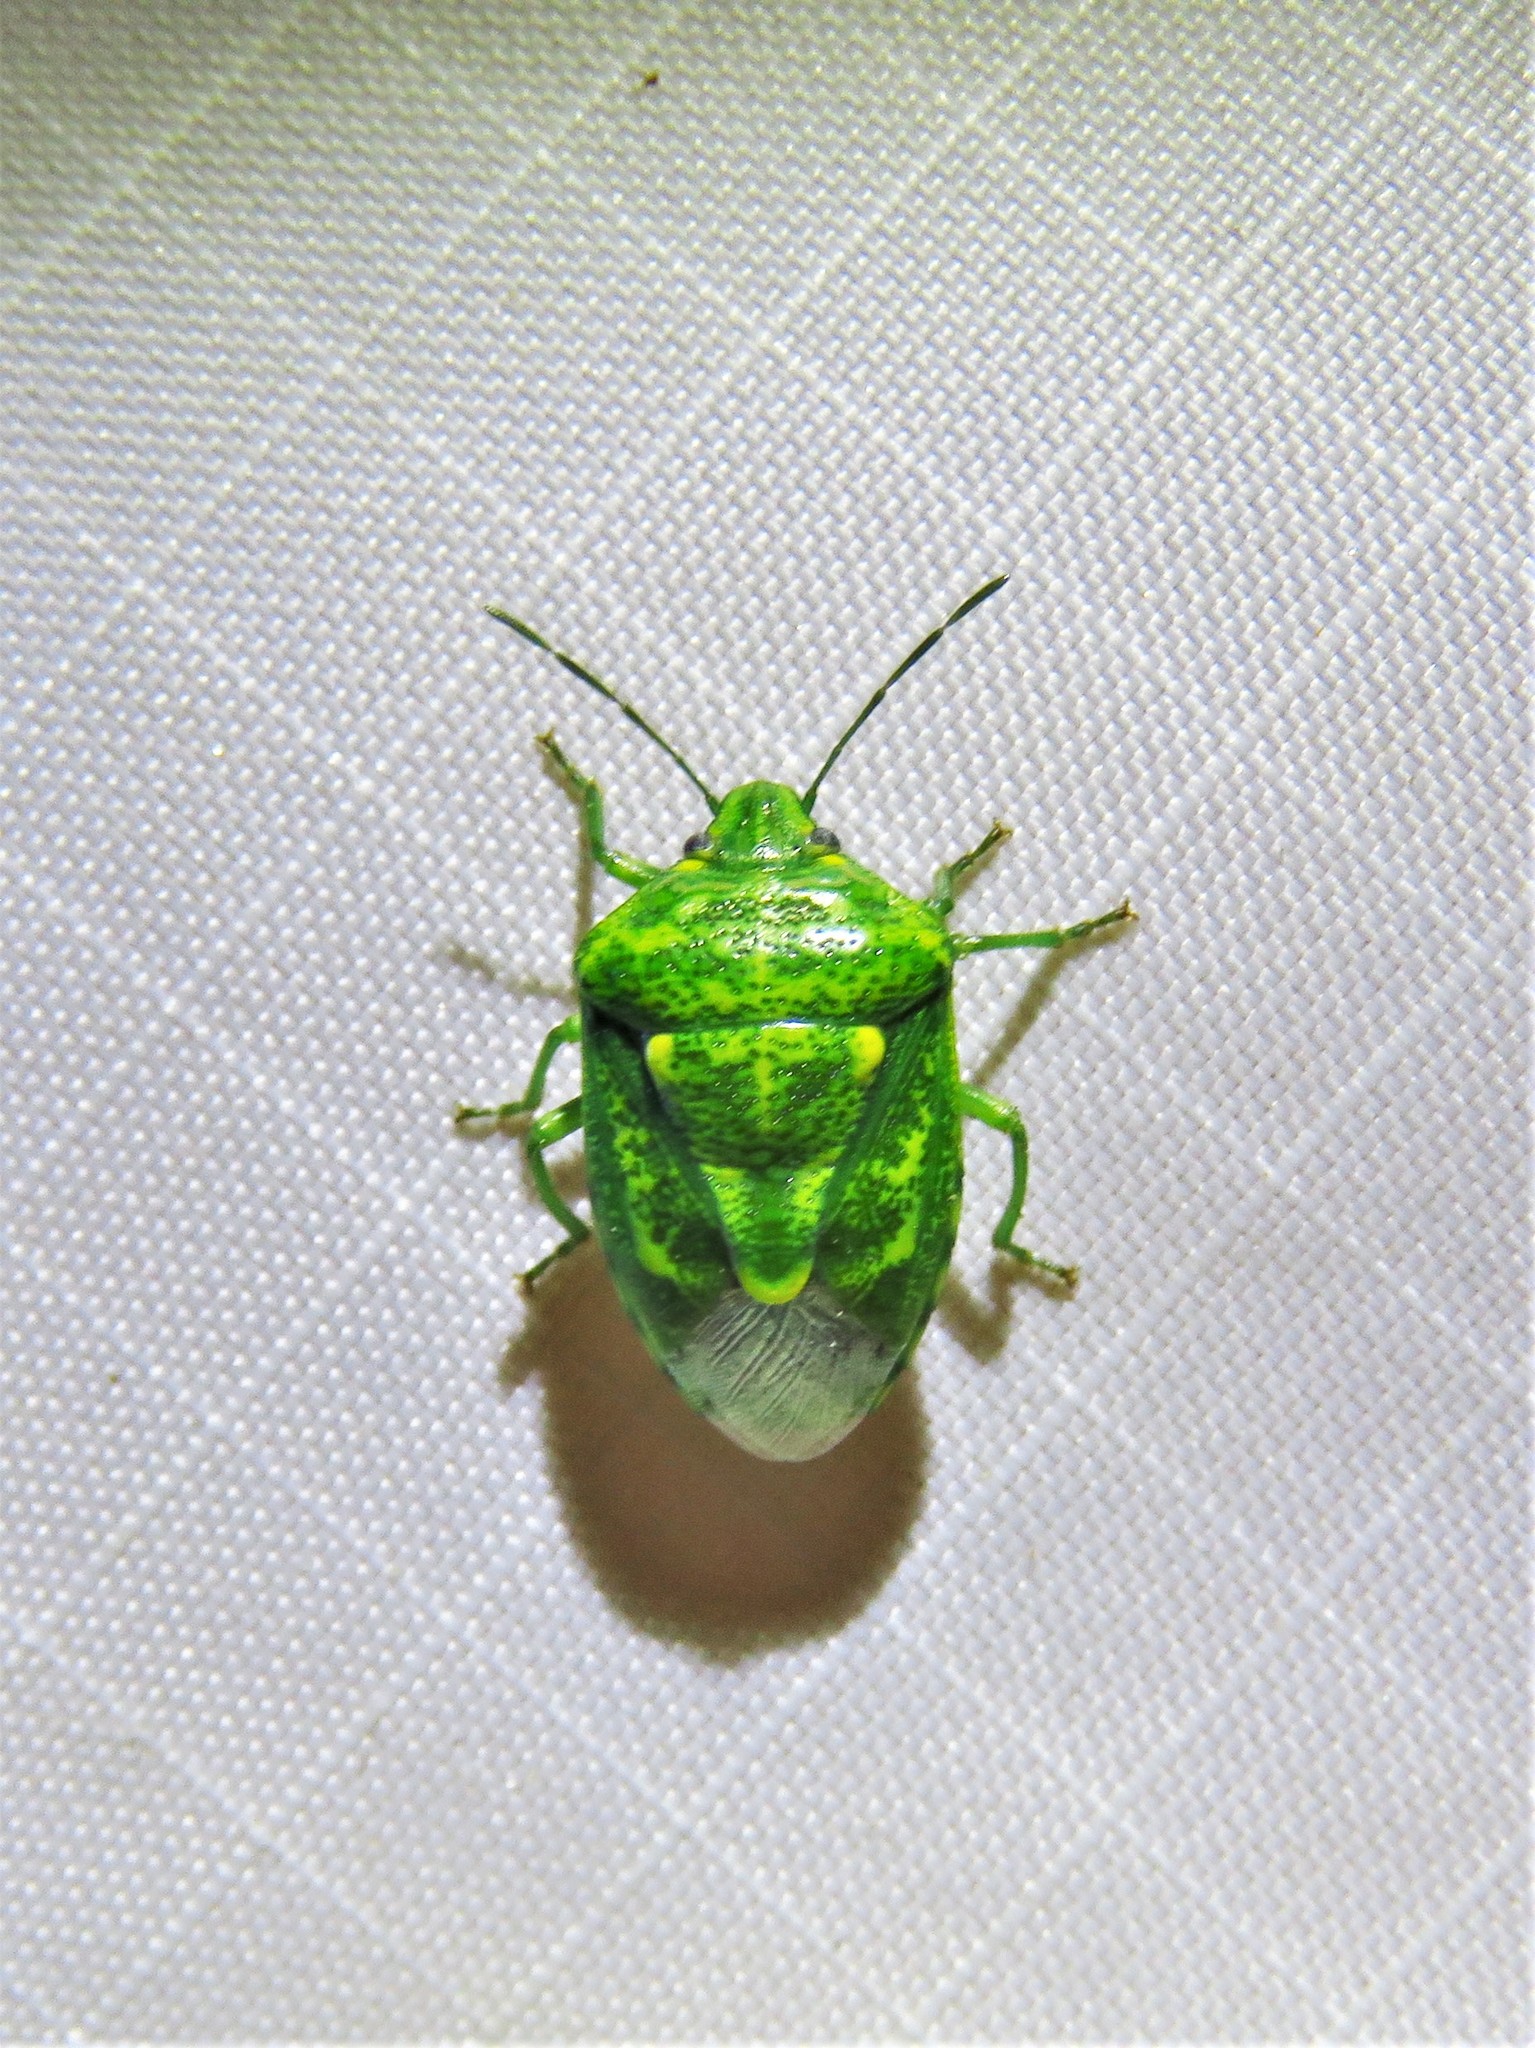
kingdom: Animalia
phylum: Arthropoda
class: Insecta
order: Hemiptera
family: Pentatomidae
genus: Banasa
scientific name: Banasa euchlora
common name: Cedar berry bug
